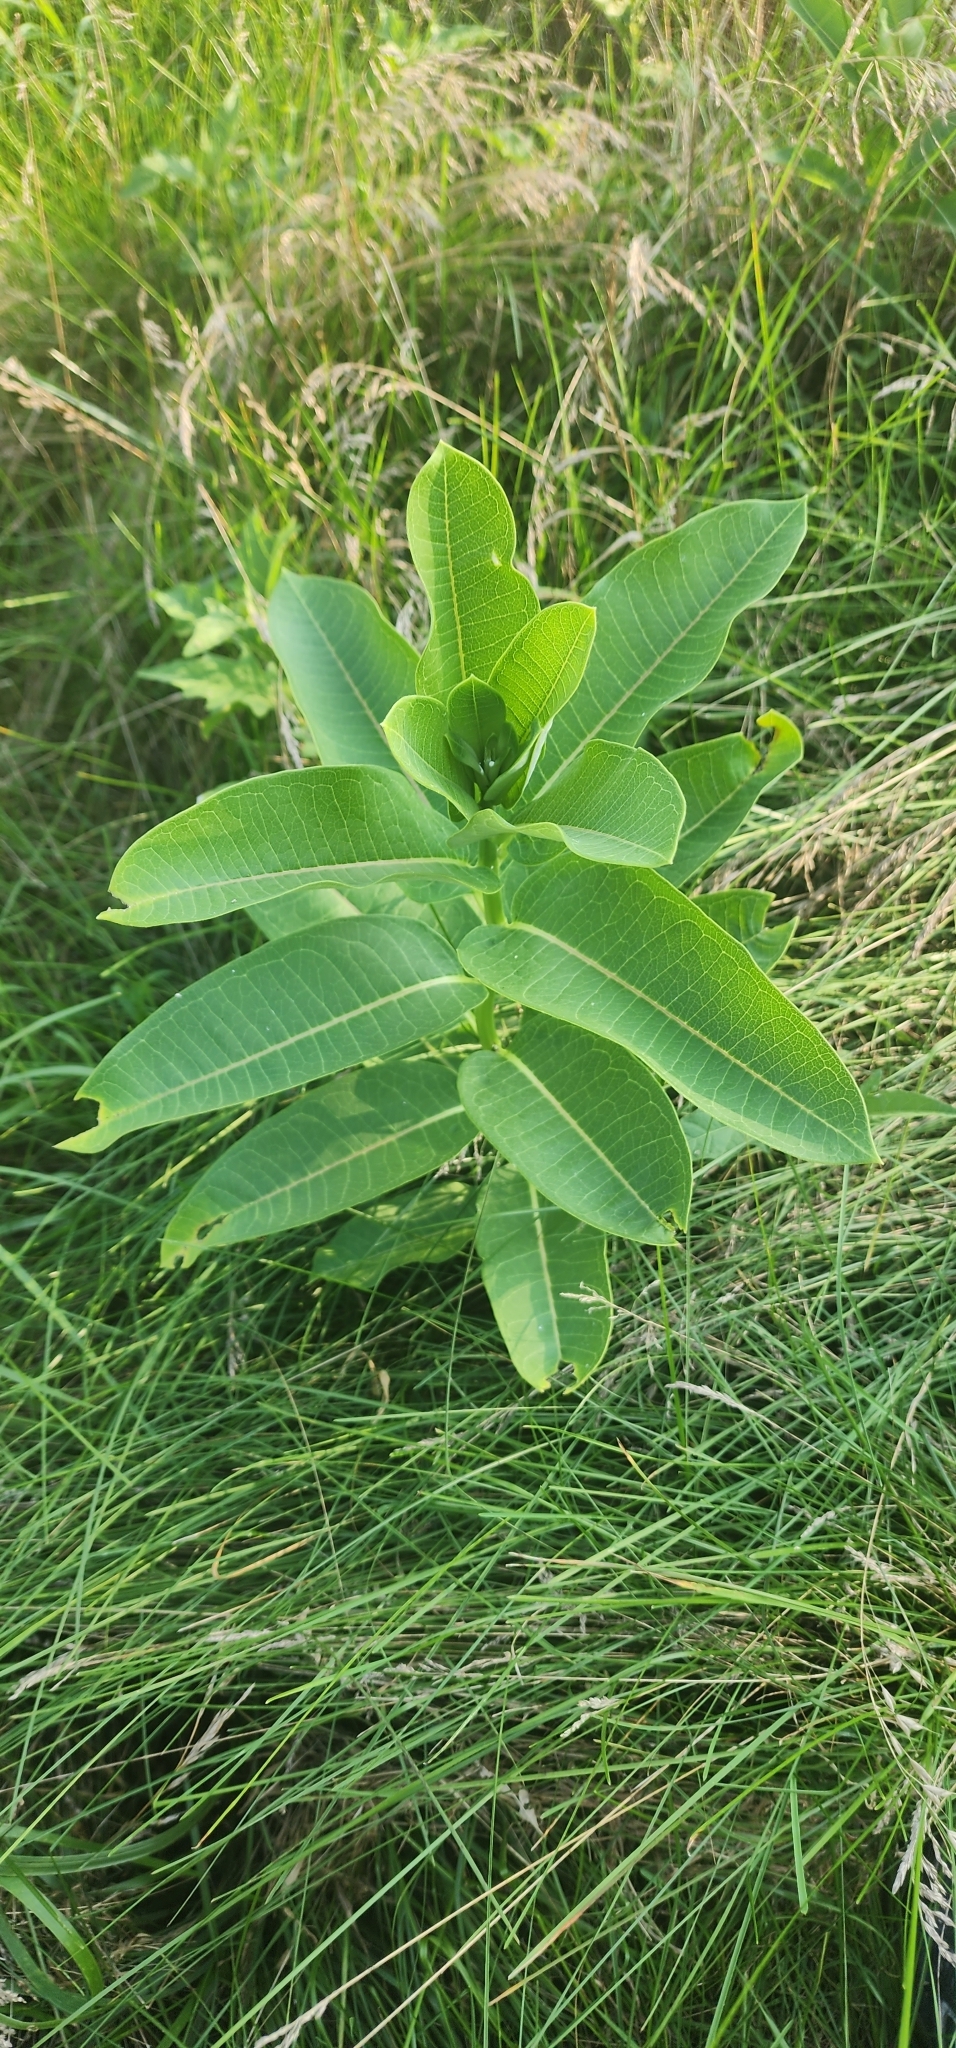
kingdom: Plantae
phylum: Tracheophyta
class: Magnoliopsida
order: Gentianales
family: Apocynaceae
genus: Asclepias
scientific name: Asclepias syriaca
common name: Common milkweed
